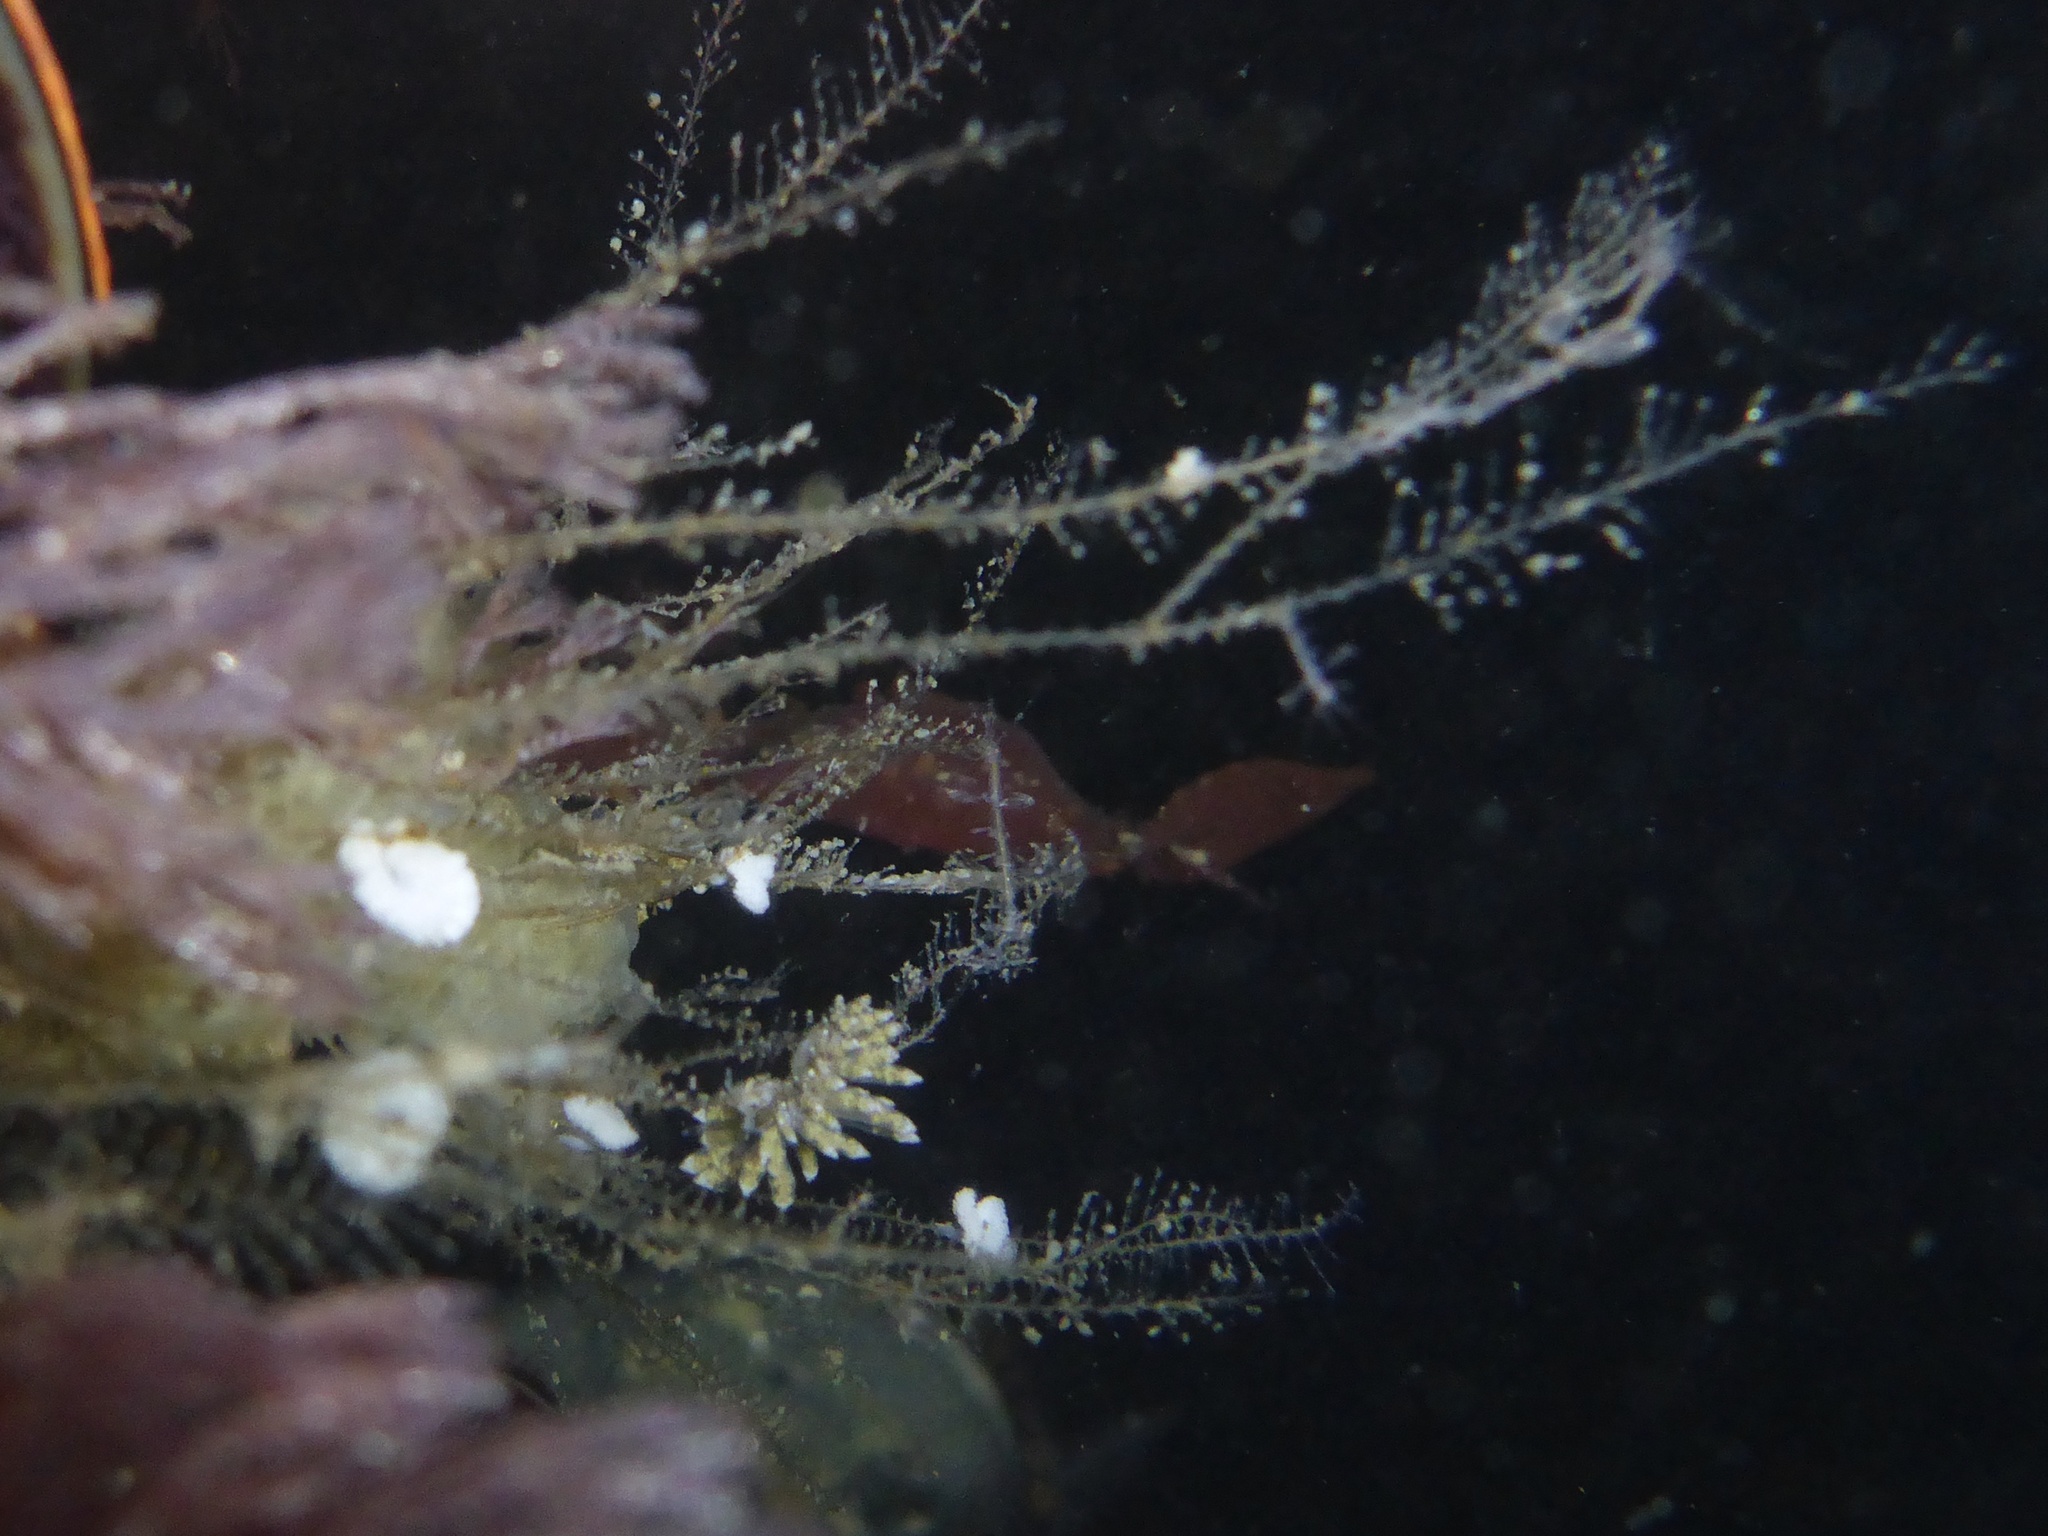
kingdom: Animalia
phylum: Mollusca
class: Gastropoda
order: Nudibranchia
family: Eubranchidae
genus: Eubranchus
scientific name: Eubranchus rustyus
